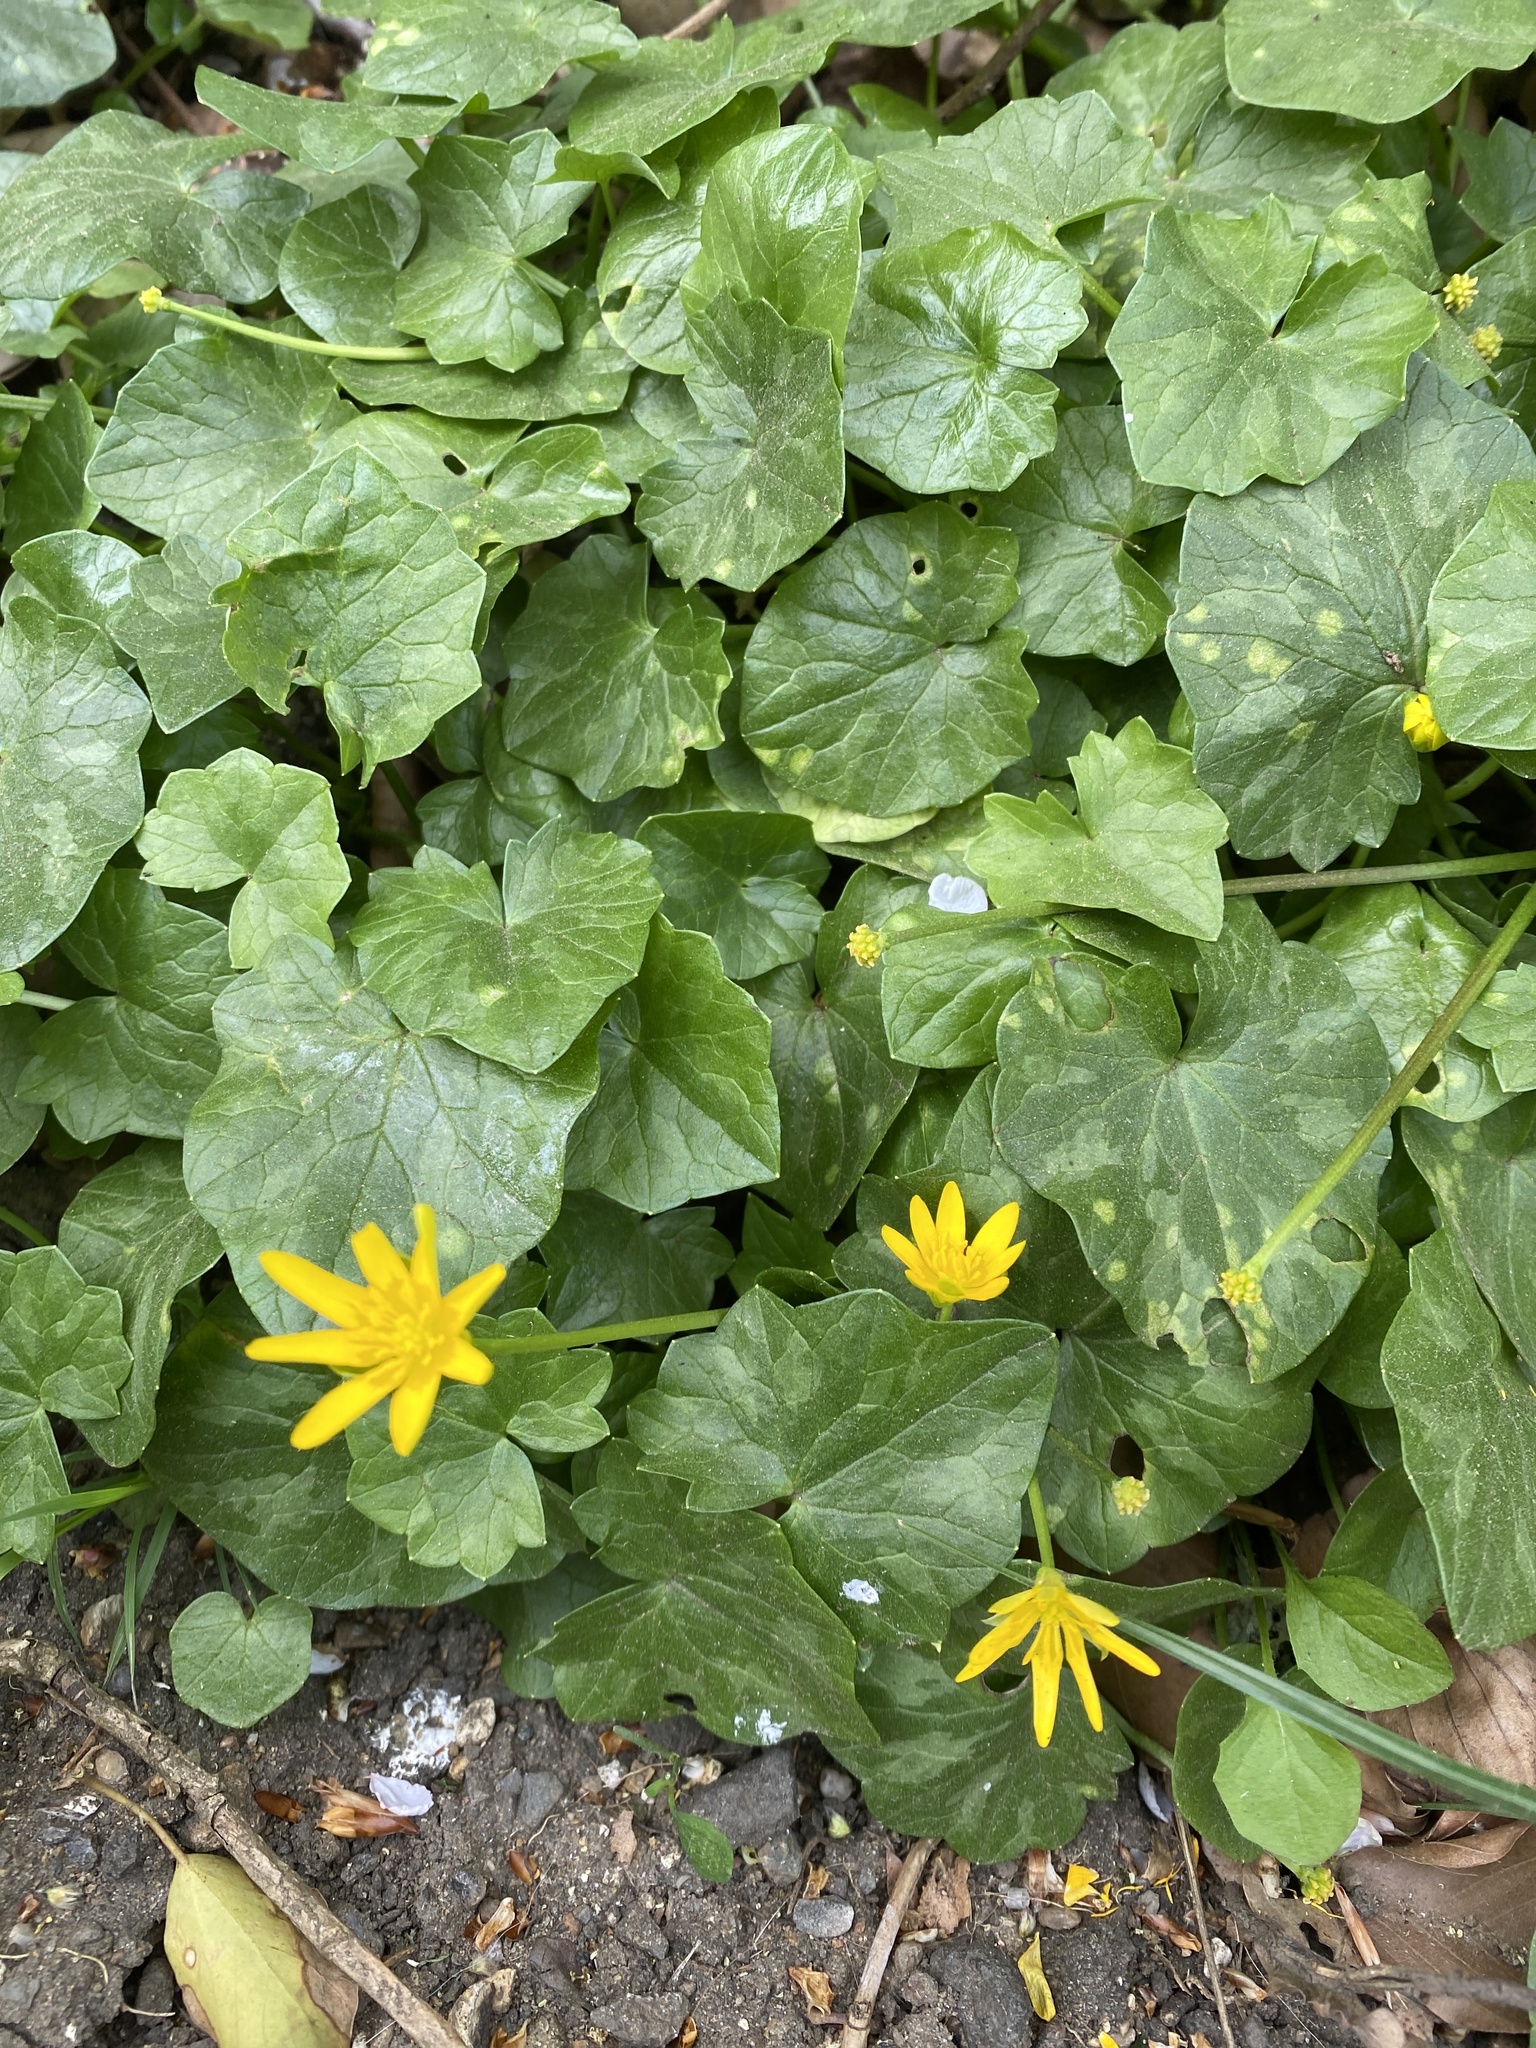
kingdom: Plantae
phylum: Tracheophyta
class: Magnoliopsida
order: Ranunculales
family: Ranunculaceae
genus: Ficaria
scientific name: Ficaria verna
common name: Lesser celandine
